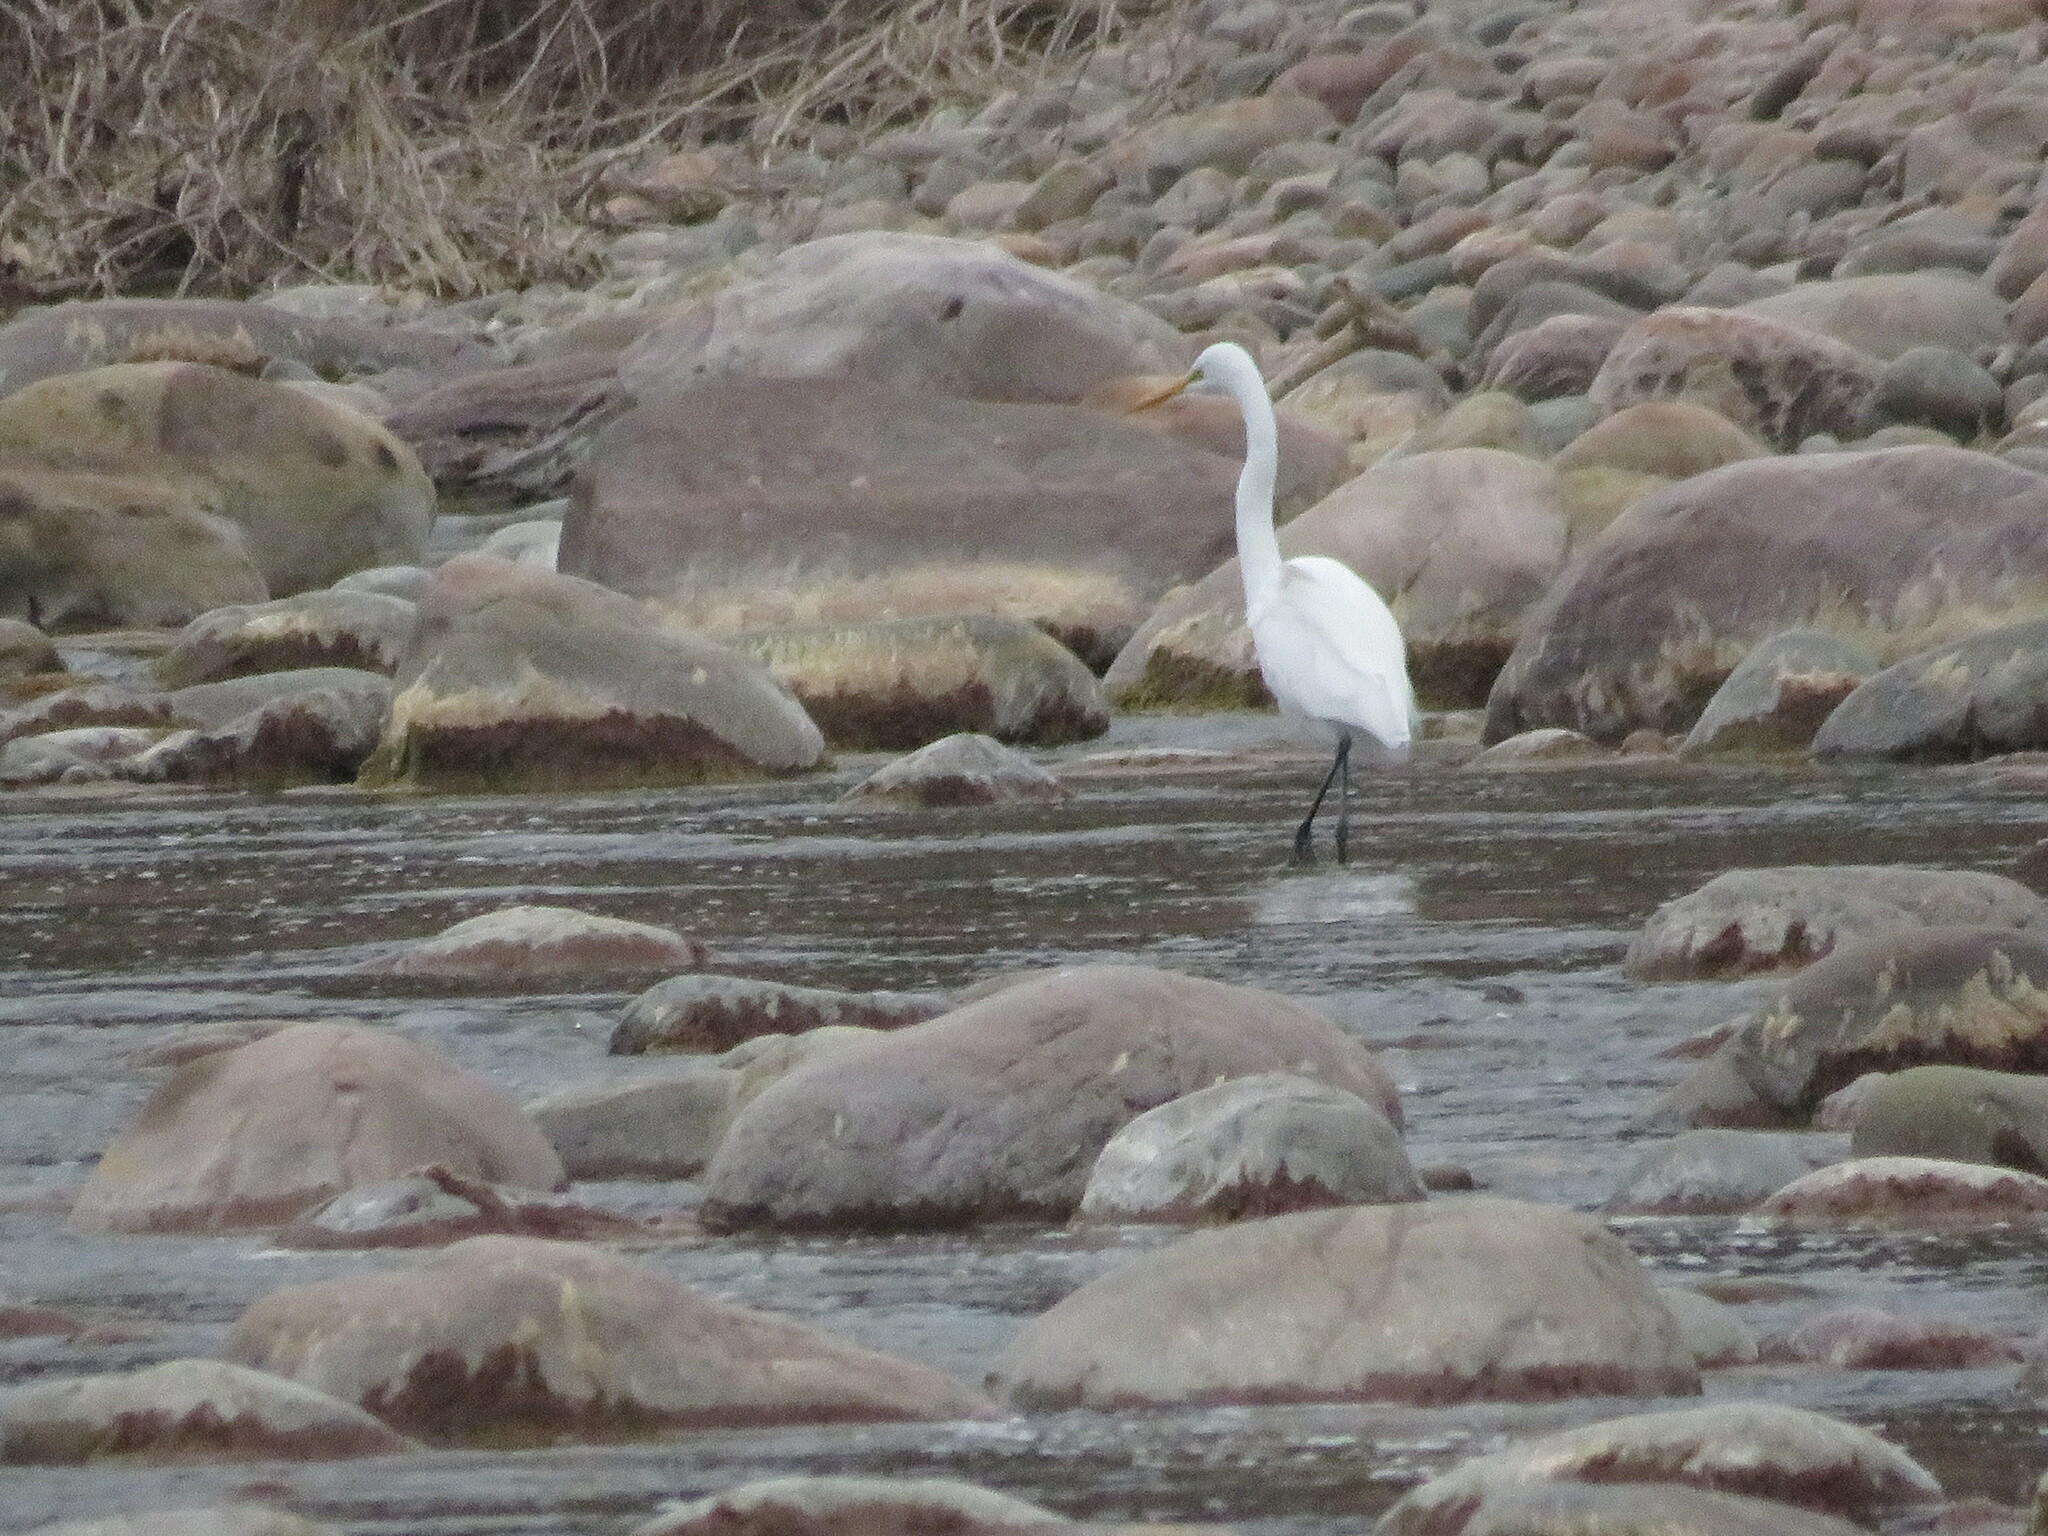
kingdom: Animalia
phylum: Chordata
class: Aves
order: Pelecaniformes
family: Ardeidae
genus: Ardea
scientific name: Ardea alba
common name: Great egret
